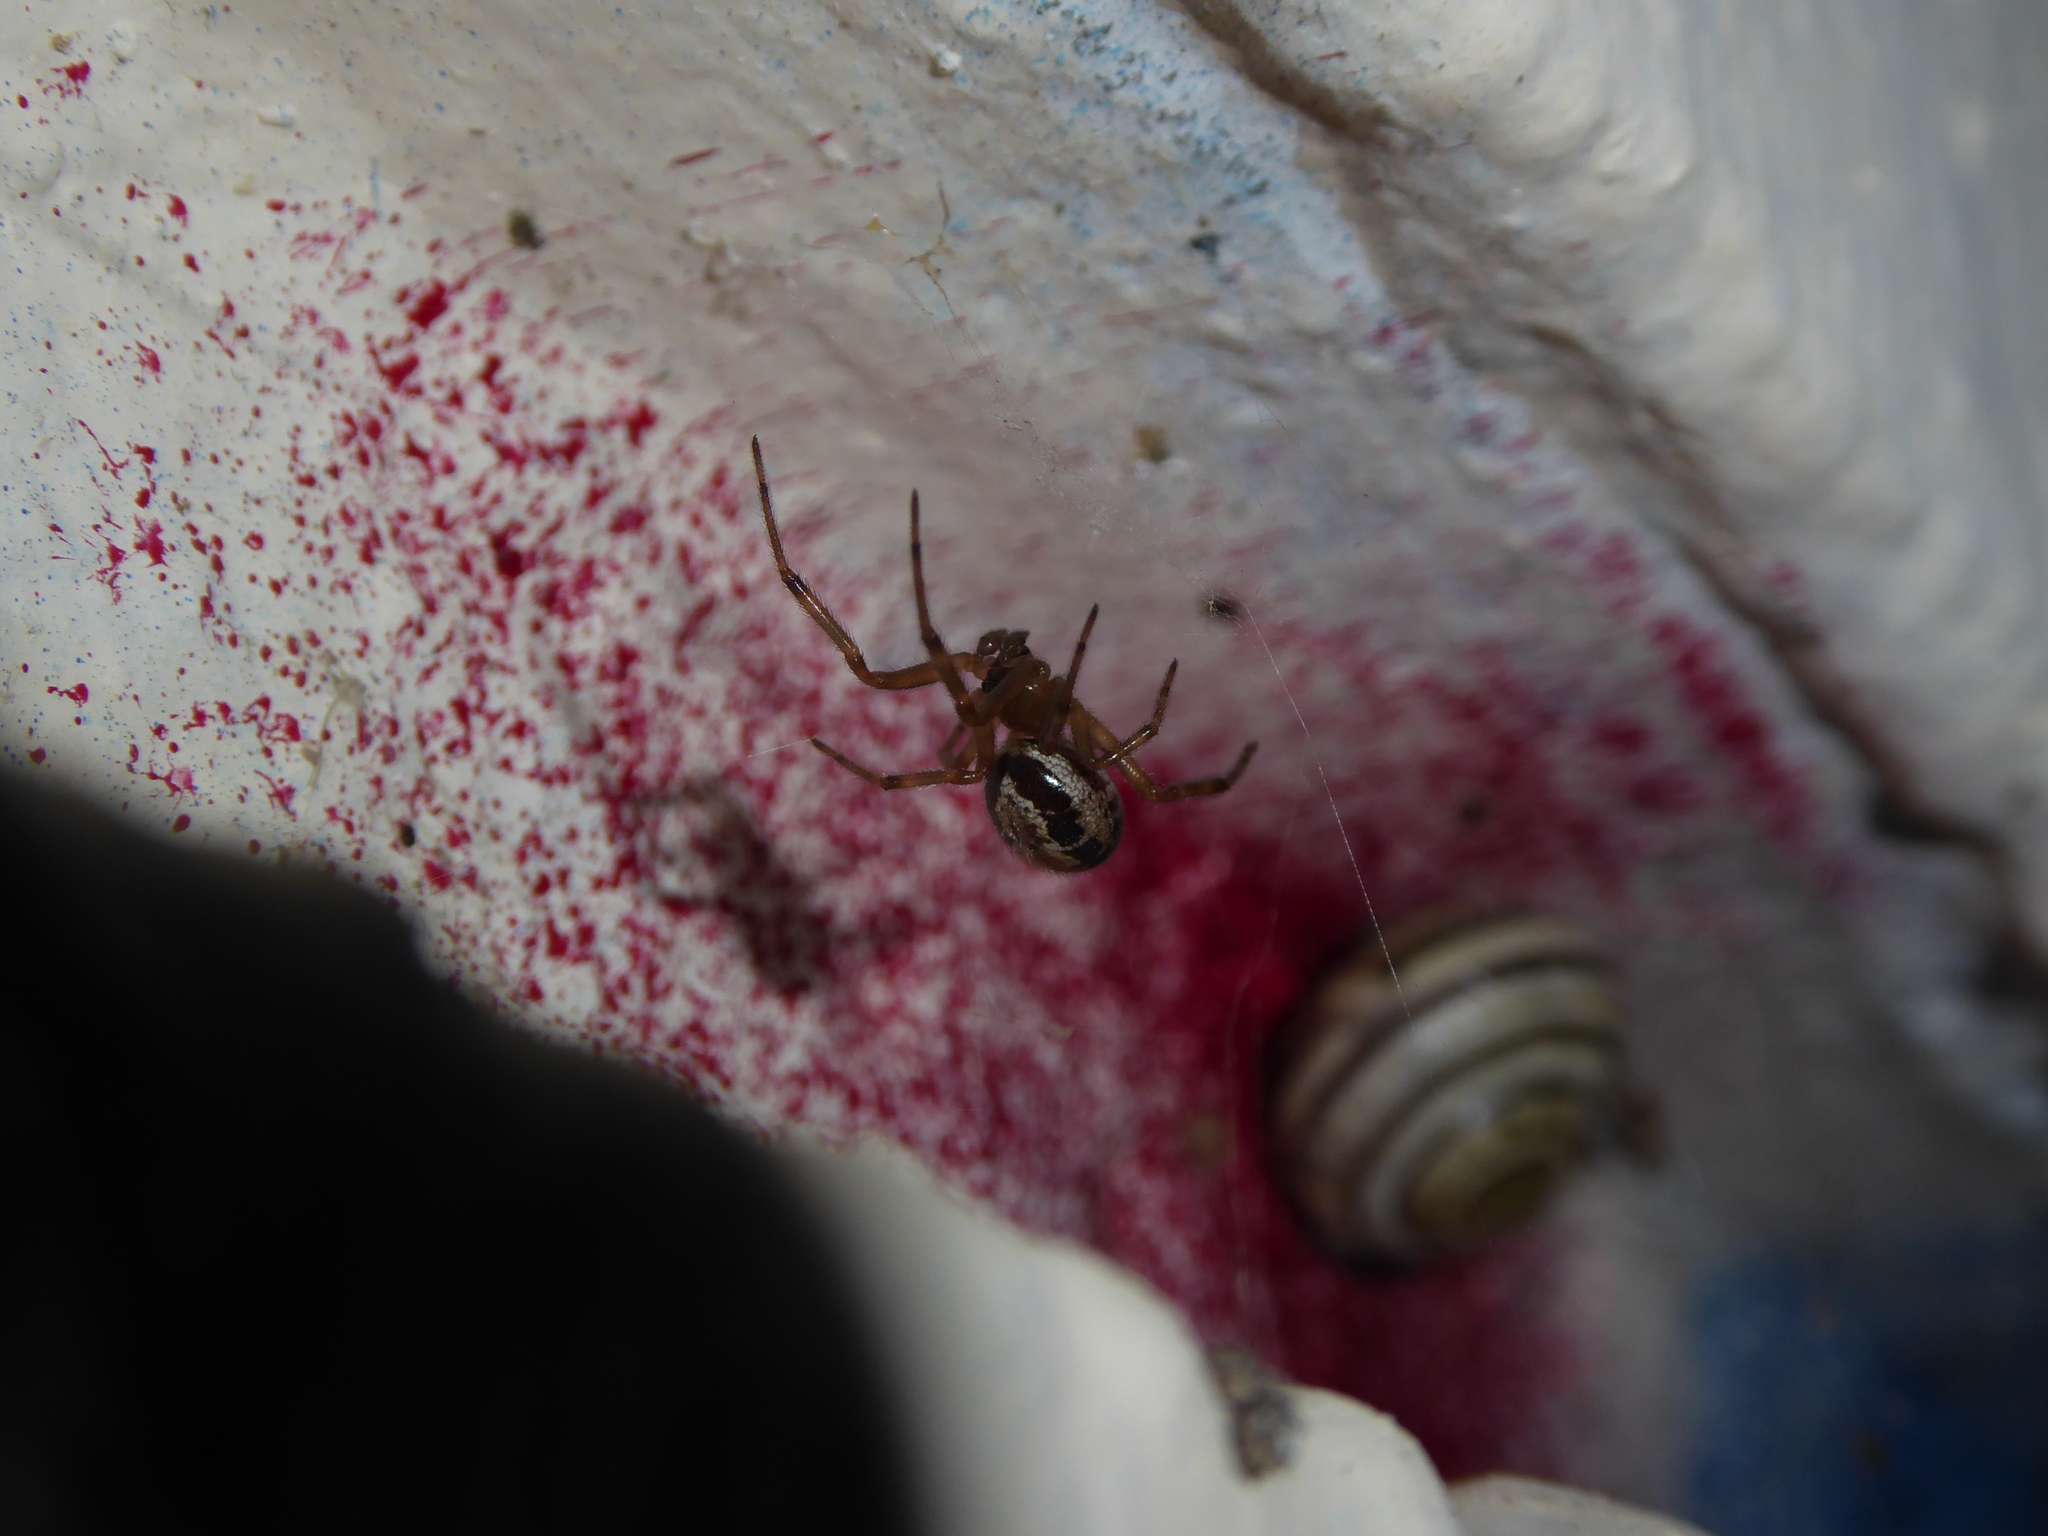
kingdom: Animalia
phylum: Arthropoda
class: Arachnida
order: Araneae
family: Theridiidae
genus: Steatoda
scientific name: Steatoda nobilis
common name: Cobweb weaver
